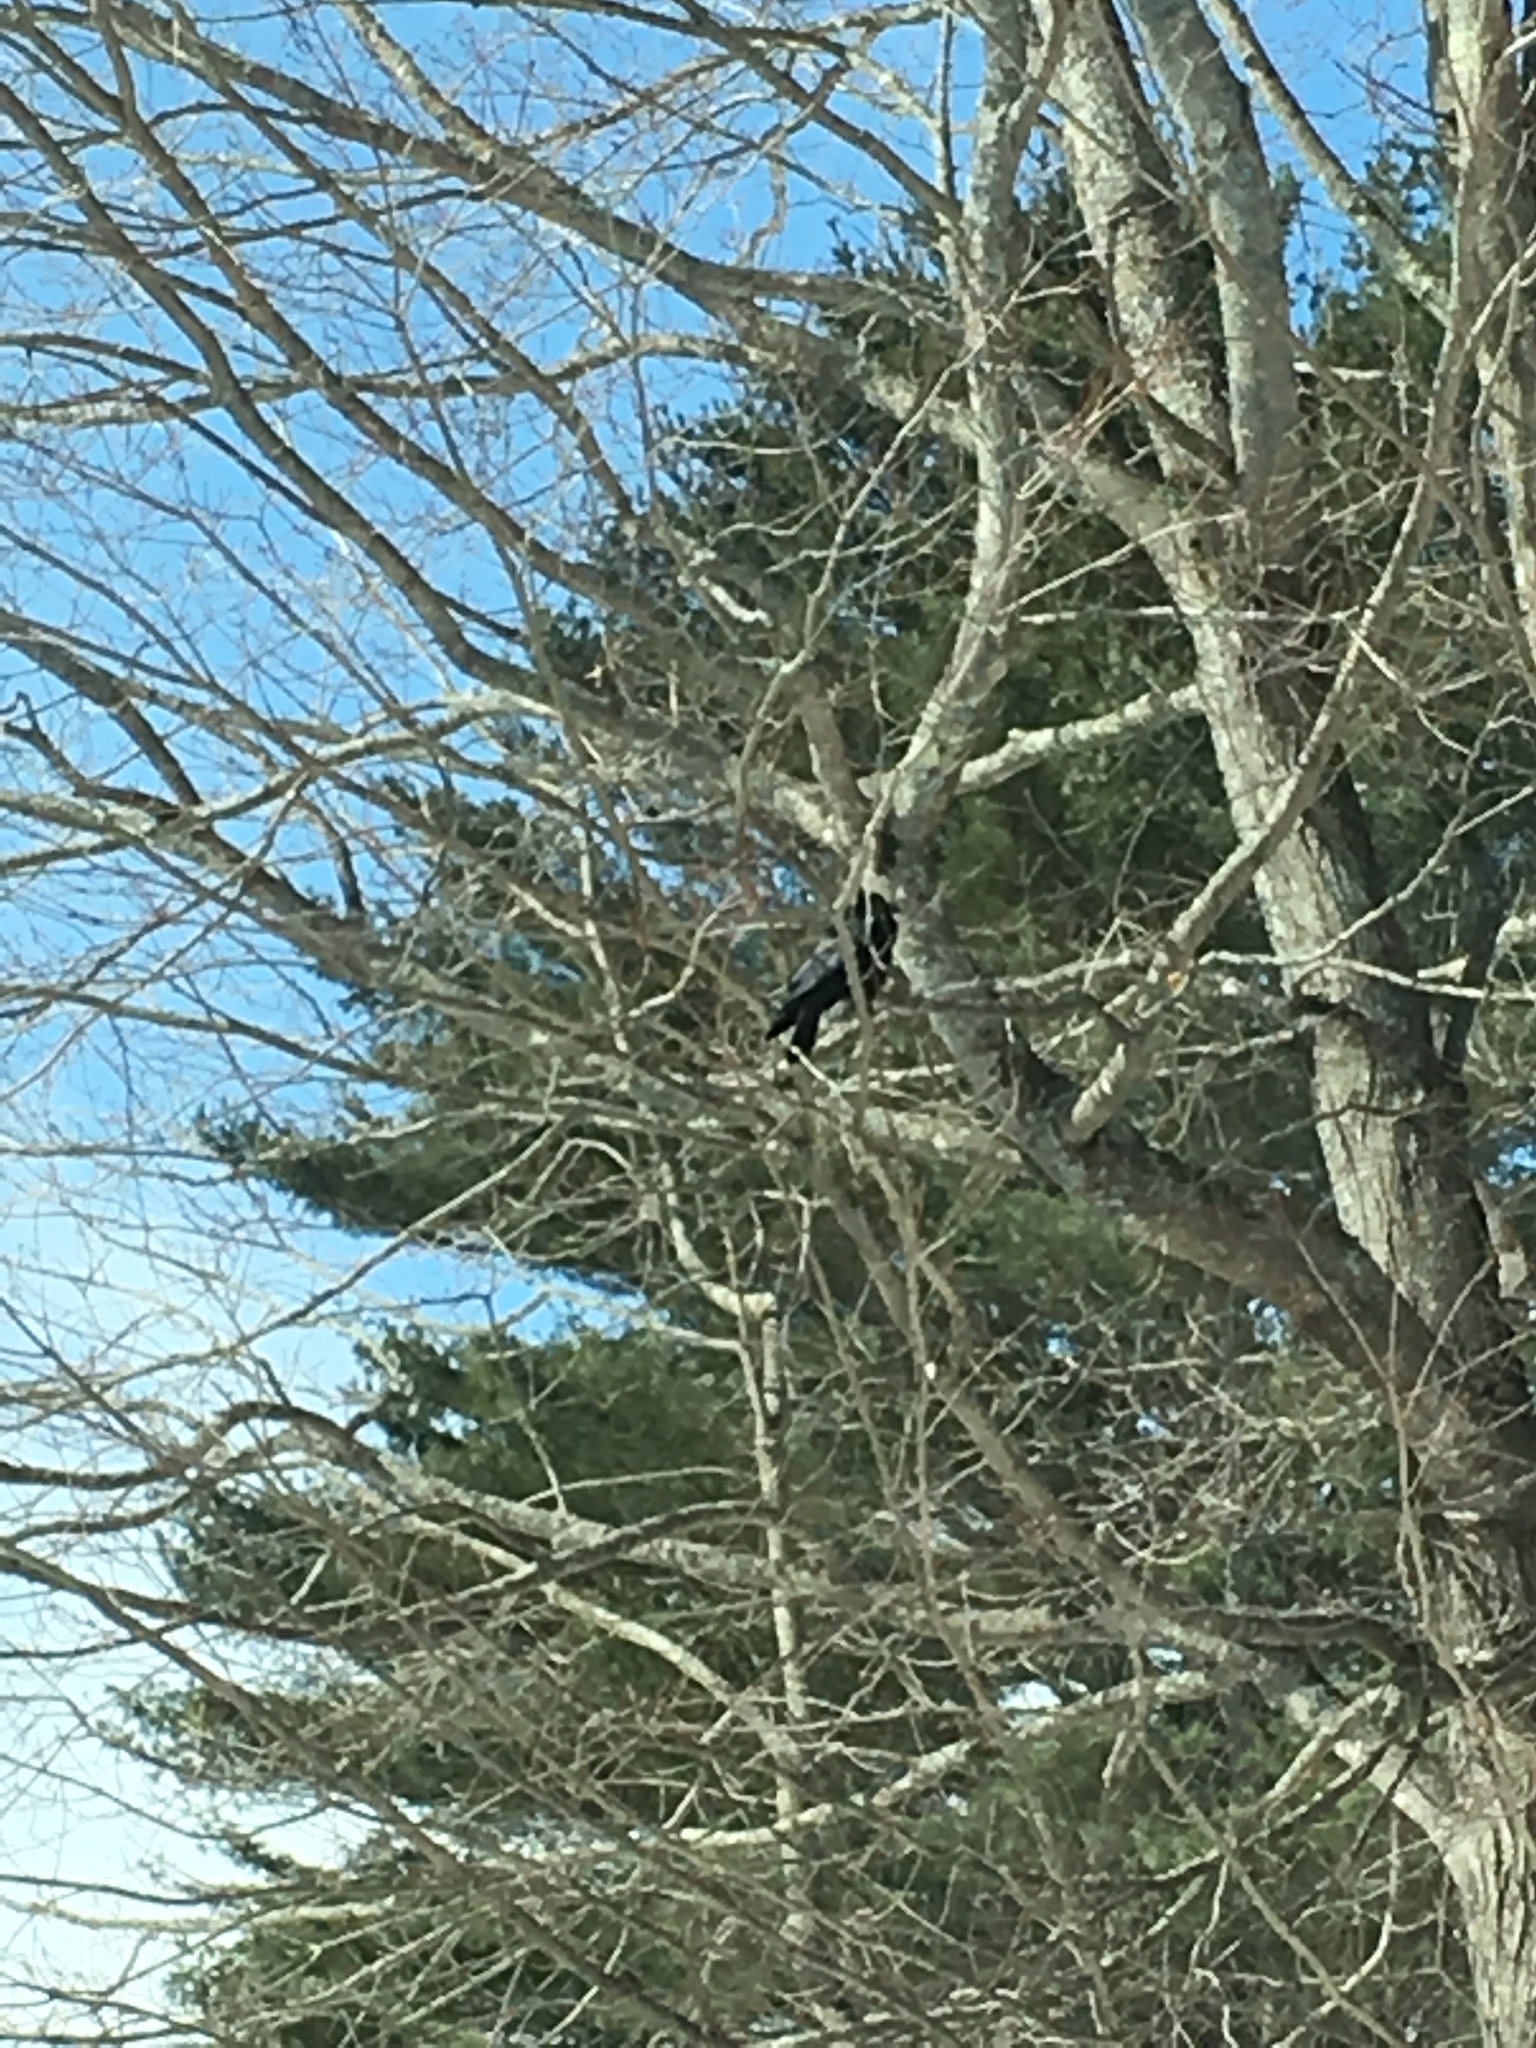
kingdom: Animalia
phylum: Chordata
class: Aves
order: Passeriformes
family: Corvidae
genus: Corvus
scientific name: Corvus brachyrhynchos
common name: American crow
